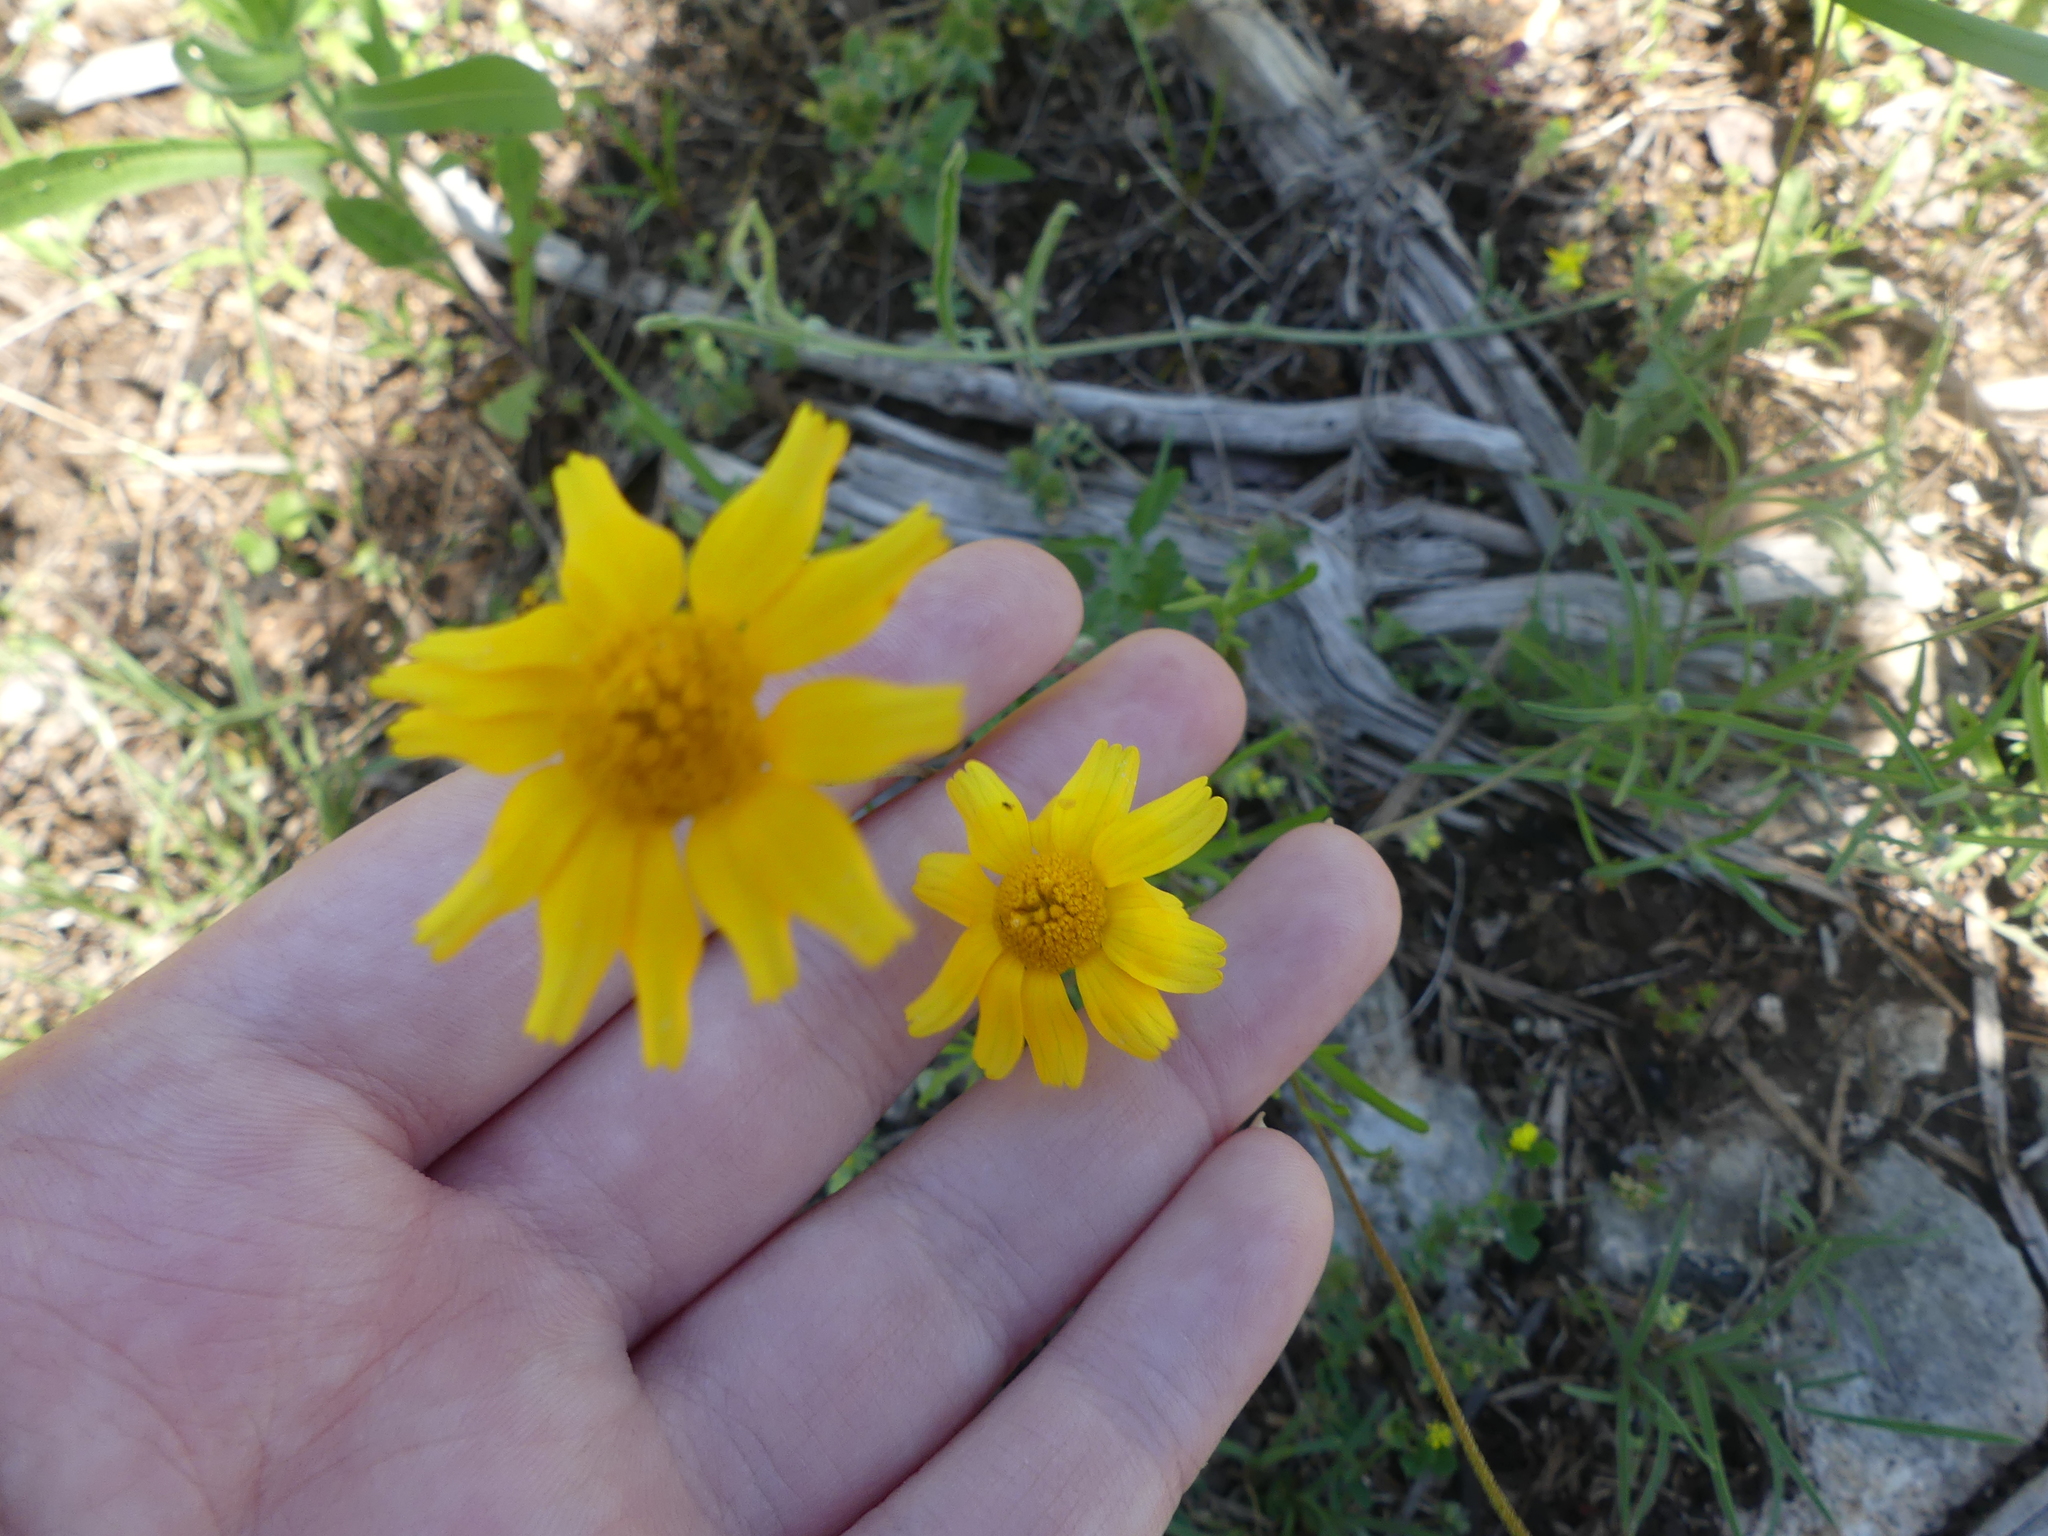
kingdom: Plantae
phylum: Tracheophyta
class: Magnoliopsida
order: Asterales
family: Asteraceae
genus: Tetraneuris
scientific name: Tetraneuris linearifolia
